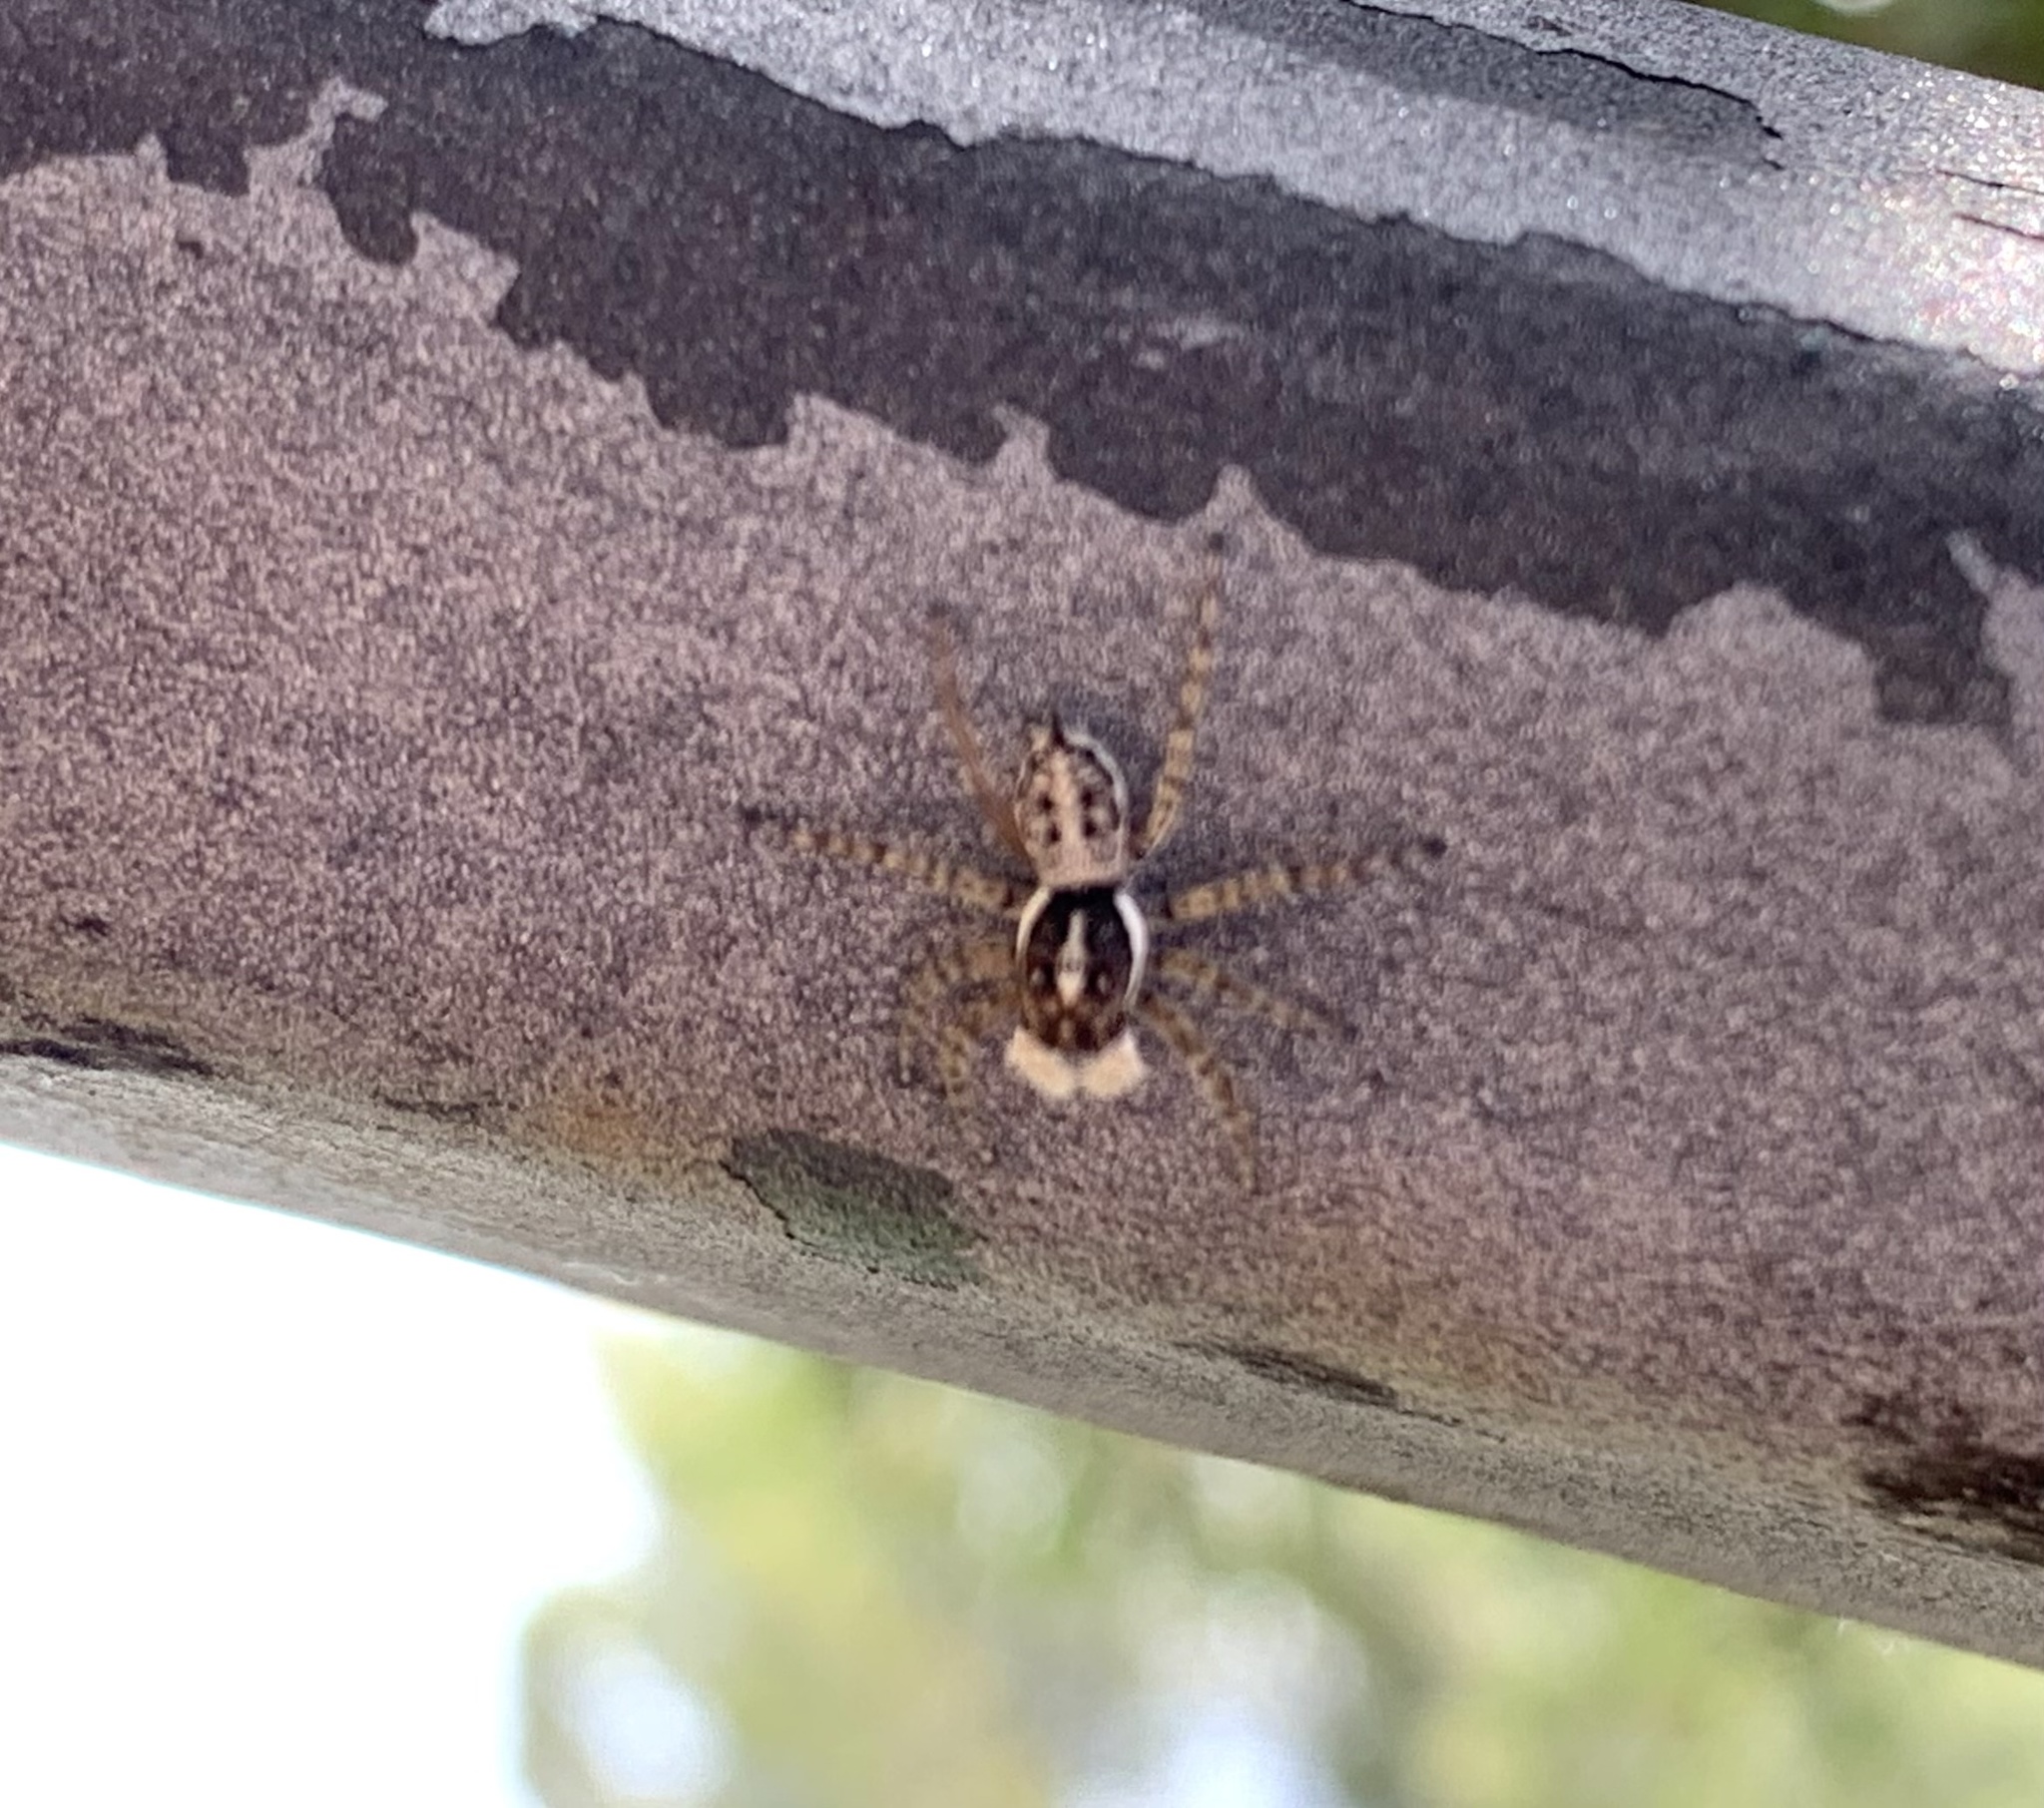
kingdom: Animalia
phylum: Arthropoda
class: Arachnida
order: Araneae
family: Salticidae
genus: Menemerus
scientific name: Menemerus semilimbatus
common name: Jumping spider
